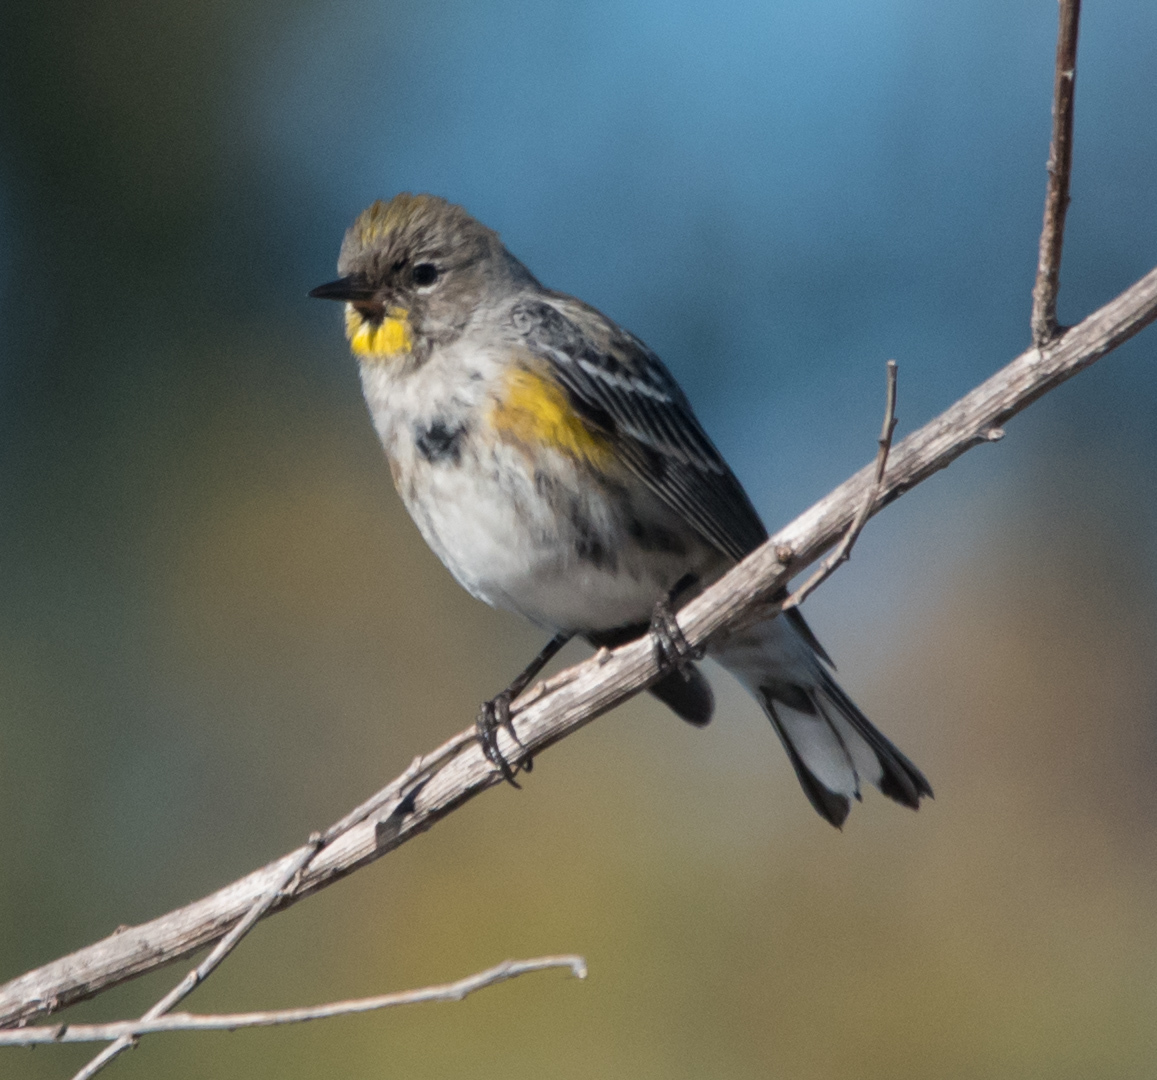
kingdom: Animalia
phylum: Chordata
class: Aves
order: Passeriformes
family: Parulidae
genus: Setophaga
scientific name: Setophaga coronata
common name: Myrtle warbler
